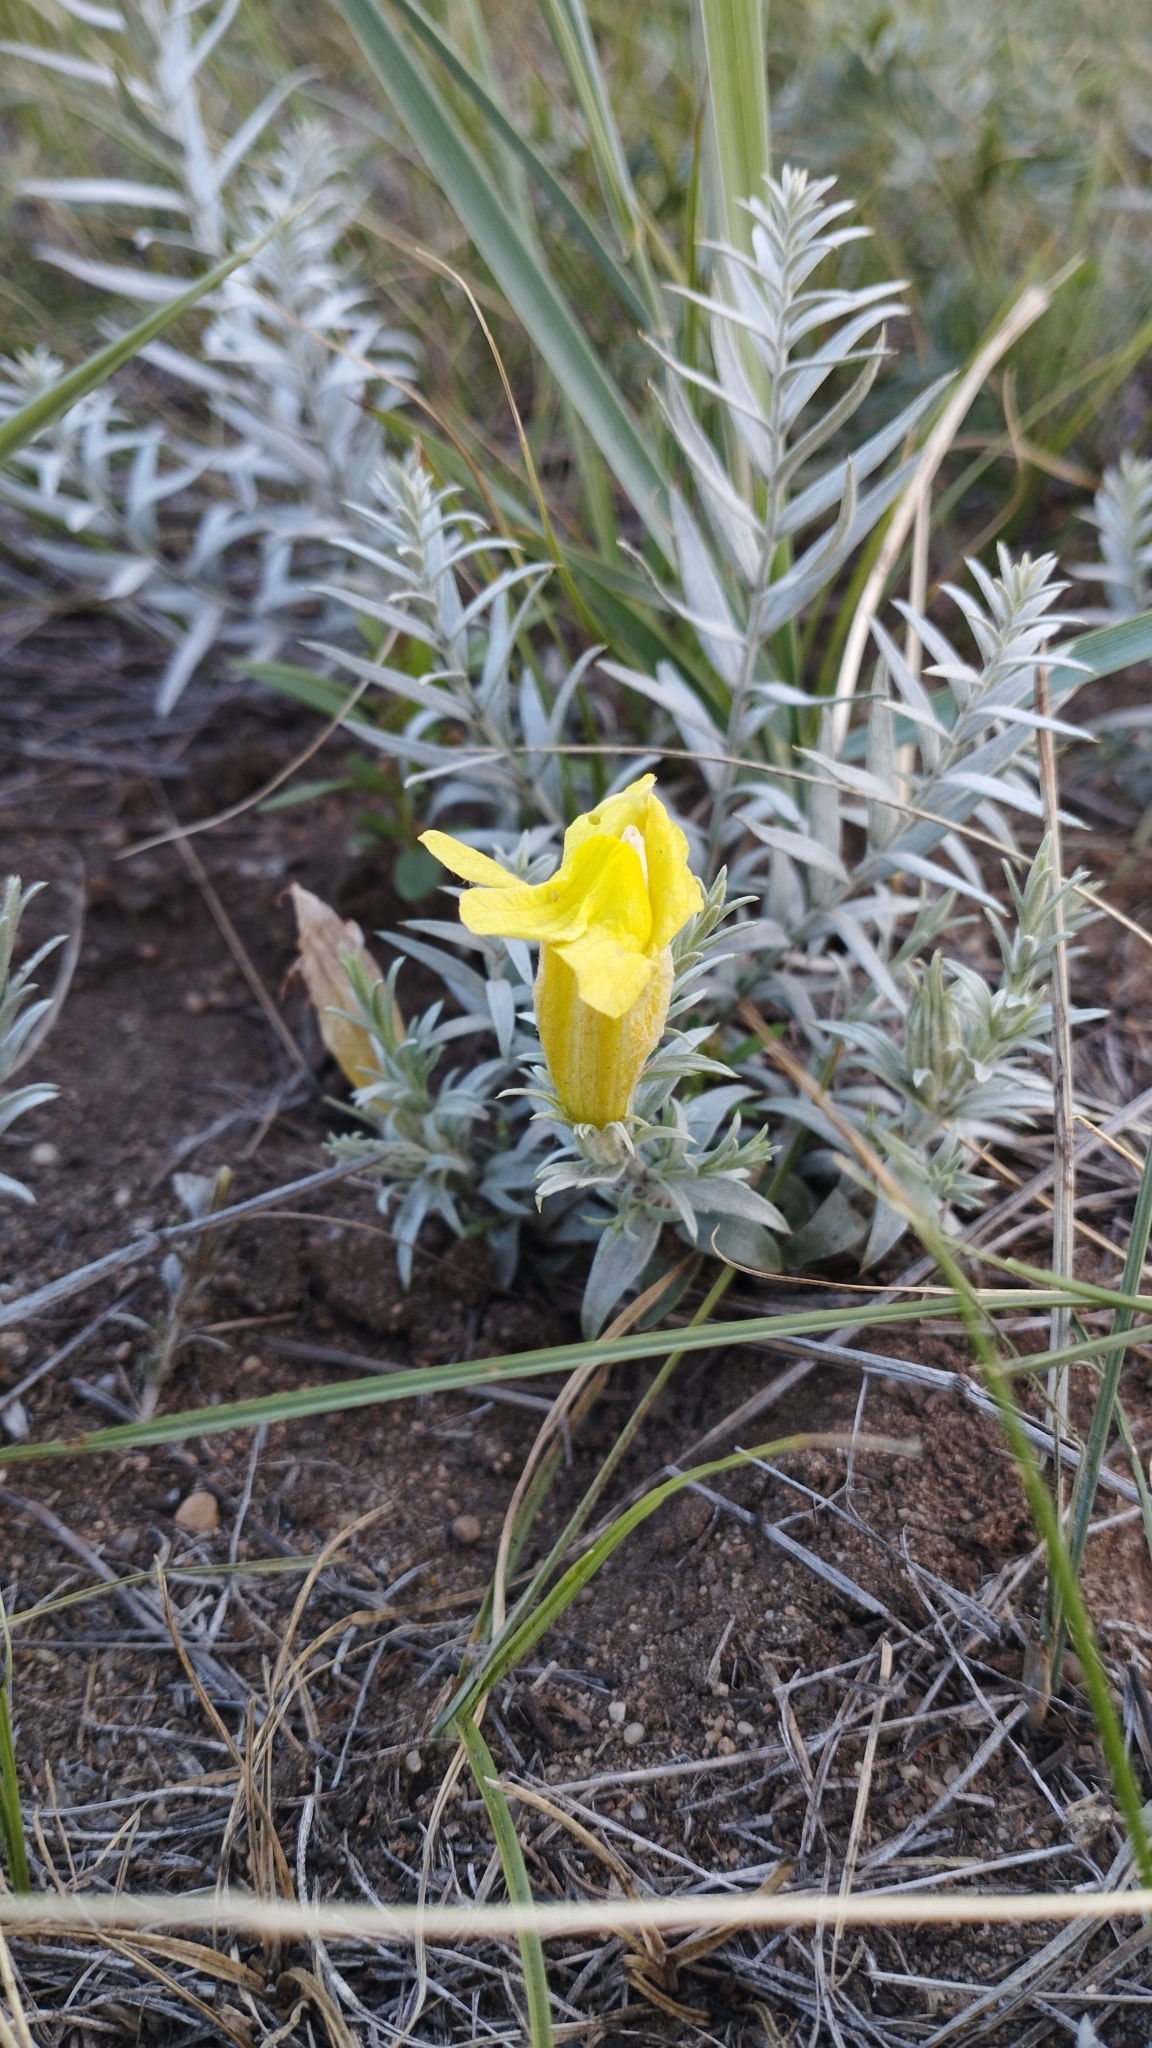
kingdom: Plantae
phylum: Tracheophyta
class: Magnoliopsida
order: Lamiales
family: Orobanchaceae
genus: Cymbaria
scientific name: Cymbaria daurica
